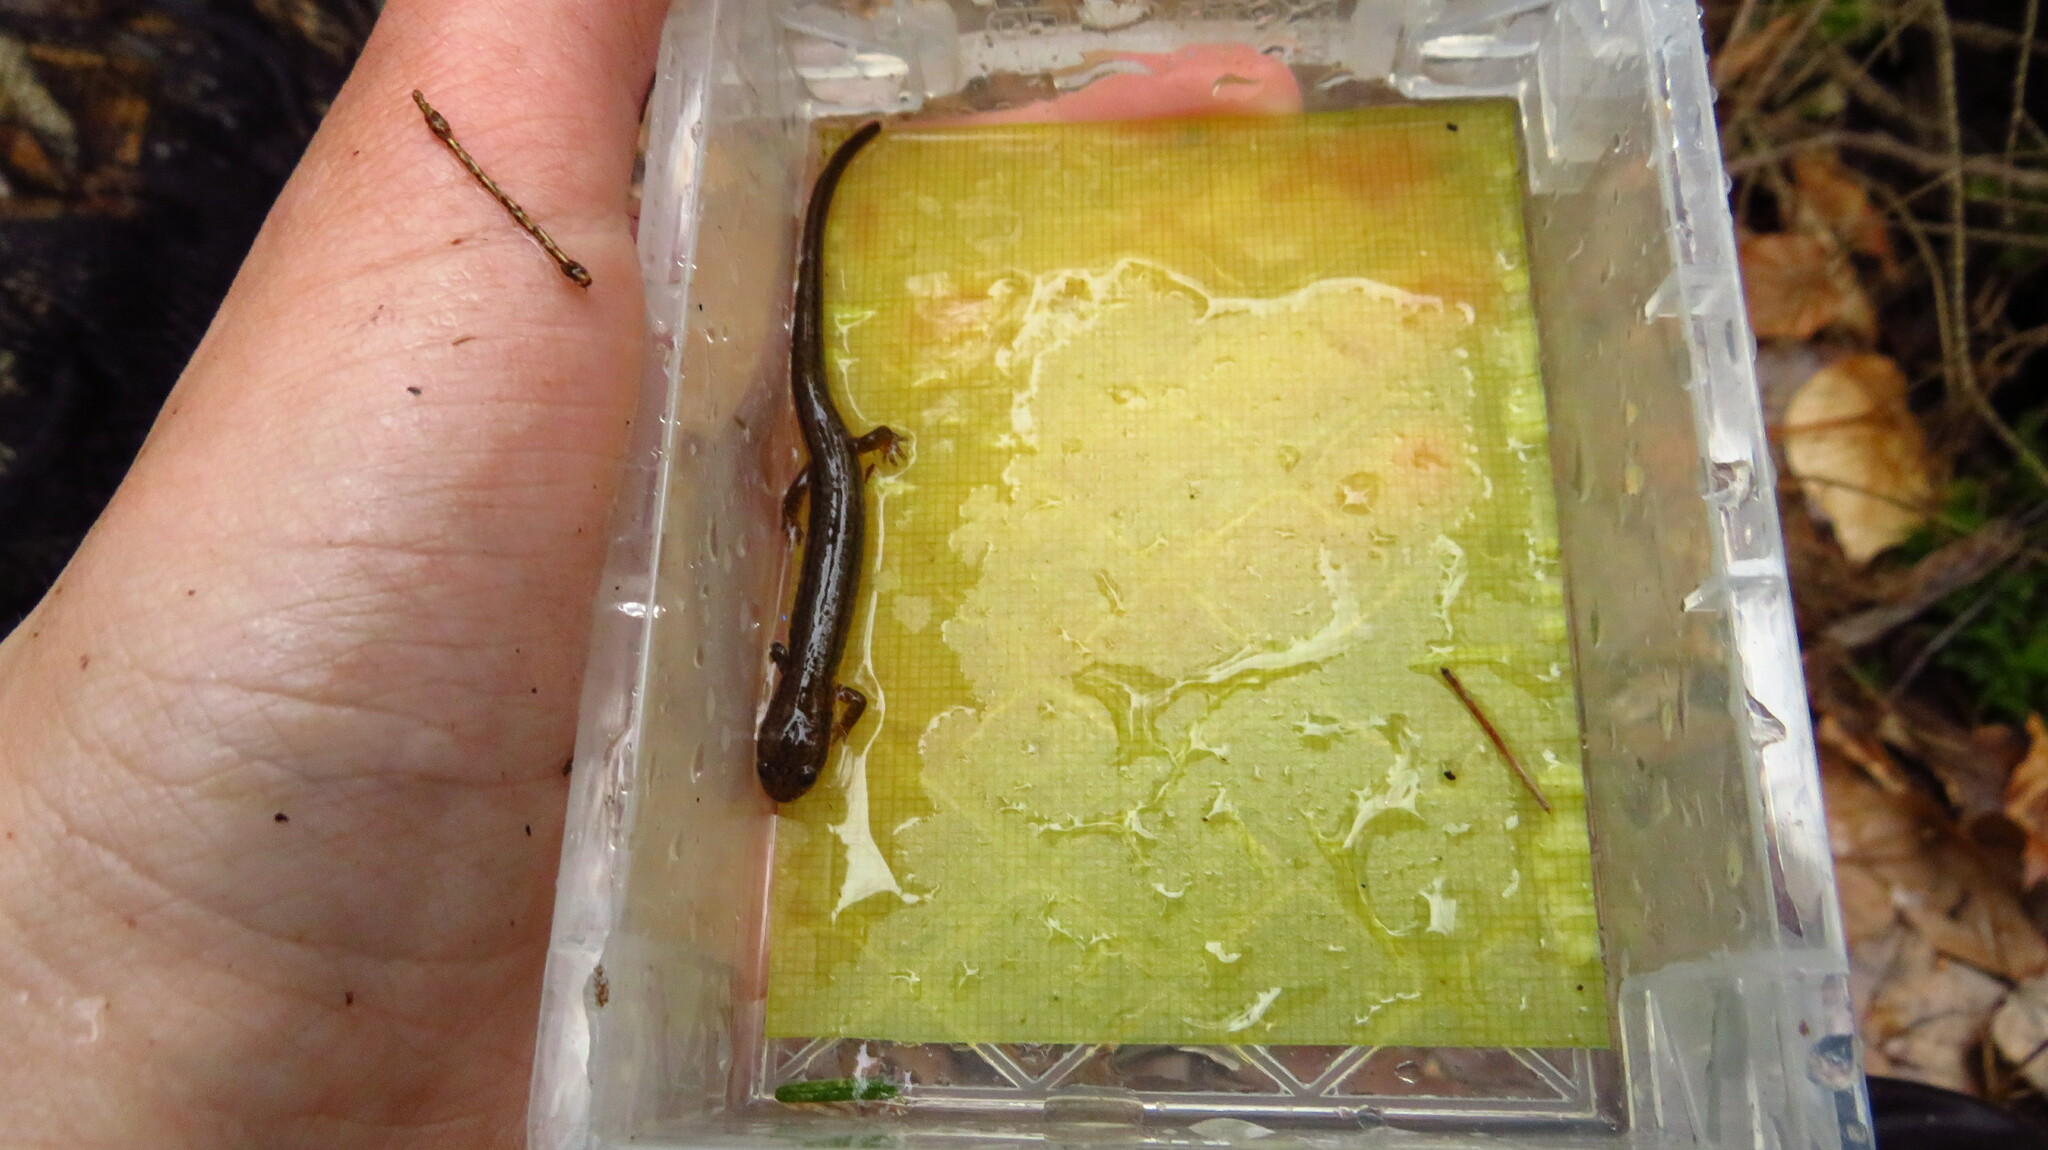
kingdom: Animalia
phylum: Chordata
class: Amphibia
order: Caudata
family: Plethodontidae
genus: Eurycea
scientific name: Eurycea bislineata
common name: Northern two-lined salamander
